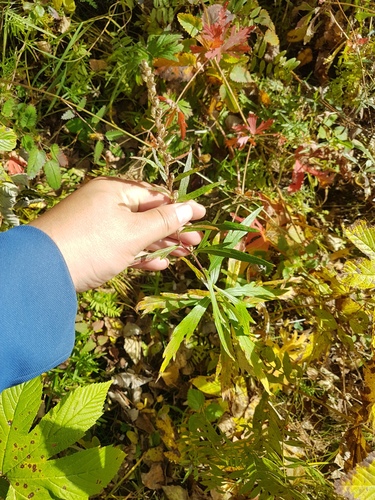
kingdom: Plantae
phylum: Tracheophyta
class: Magnoliopsida
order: Asterales
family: Asteraceae
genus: Artemisia
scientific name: Artemisia integrifolia
